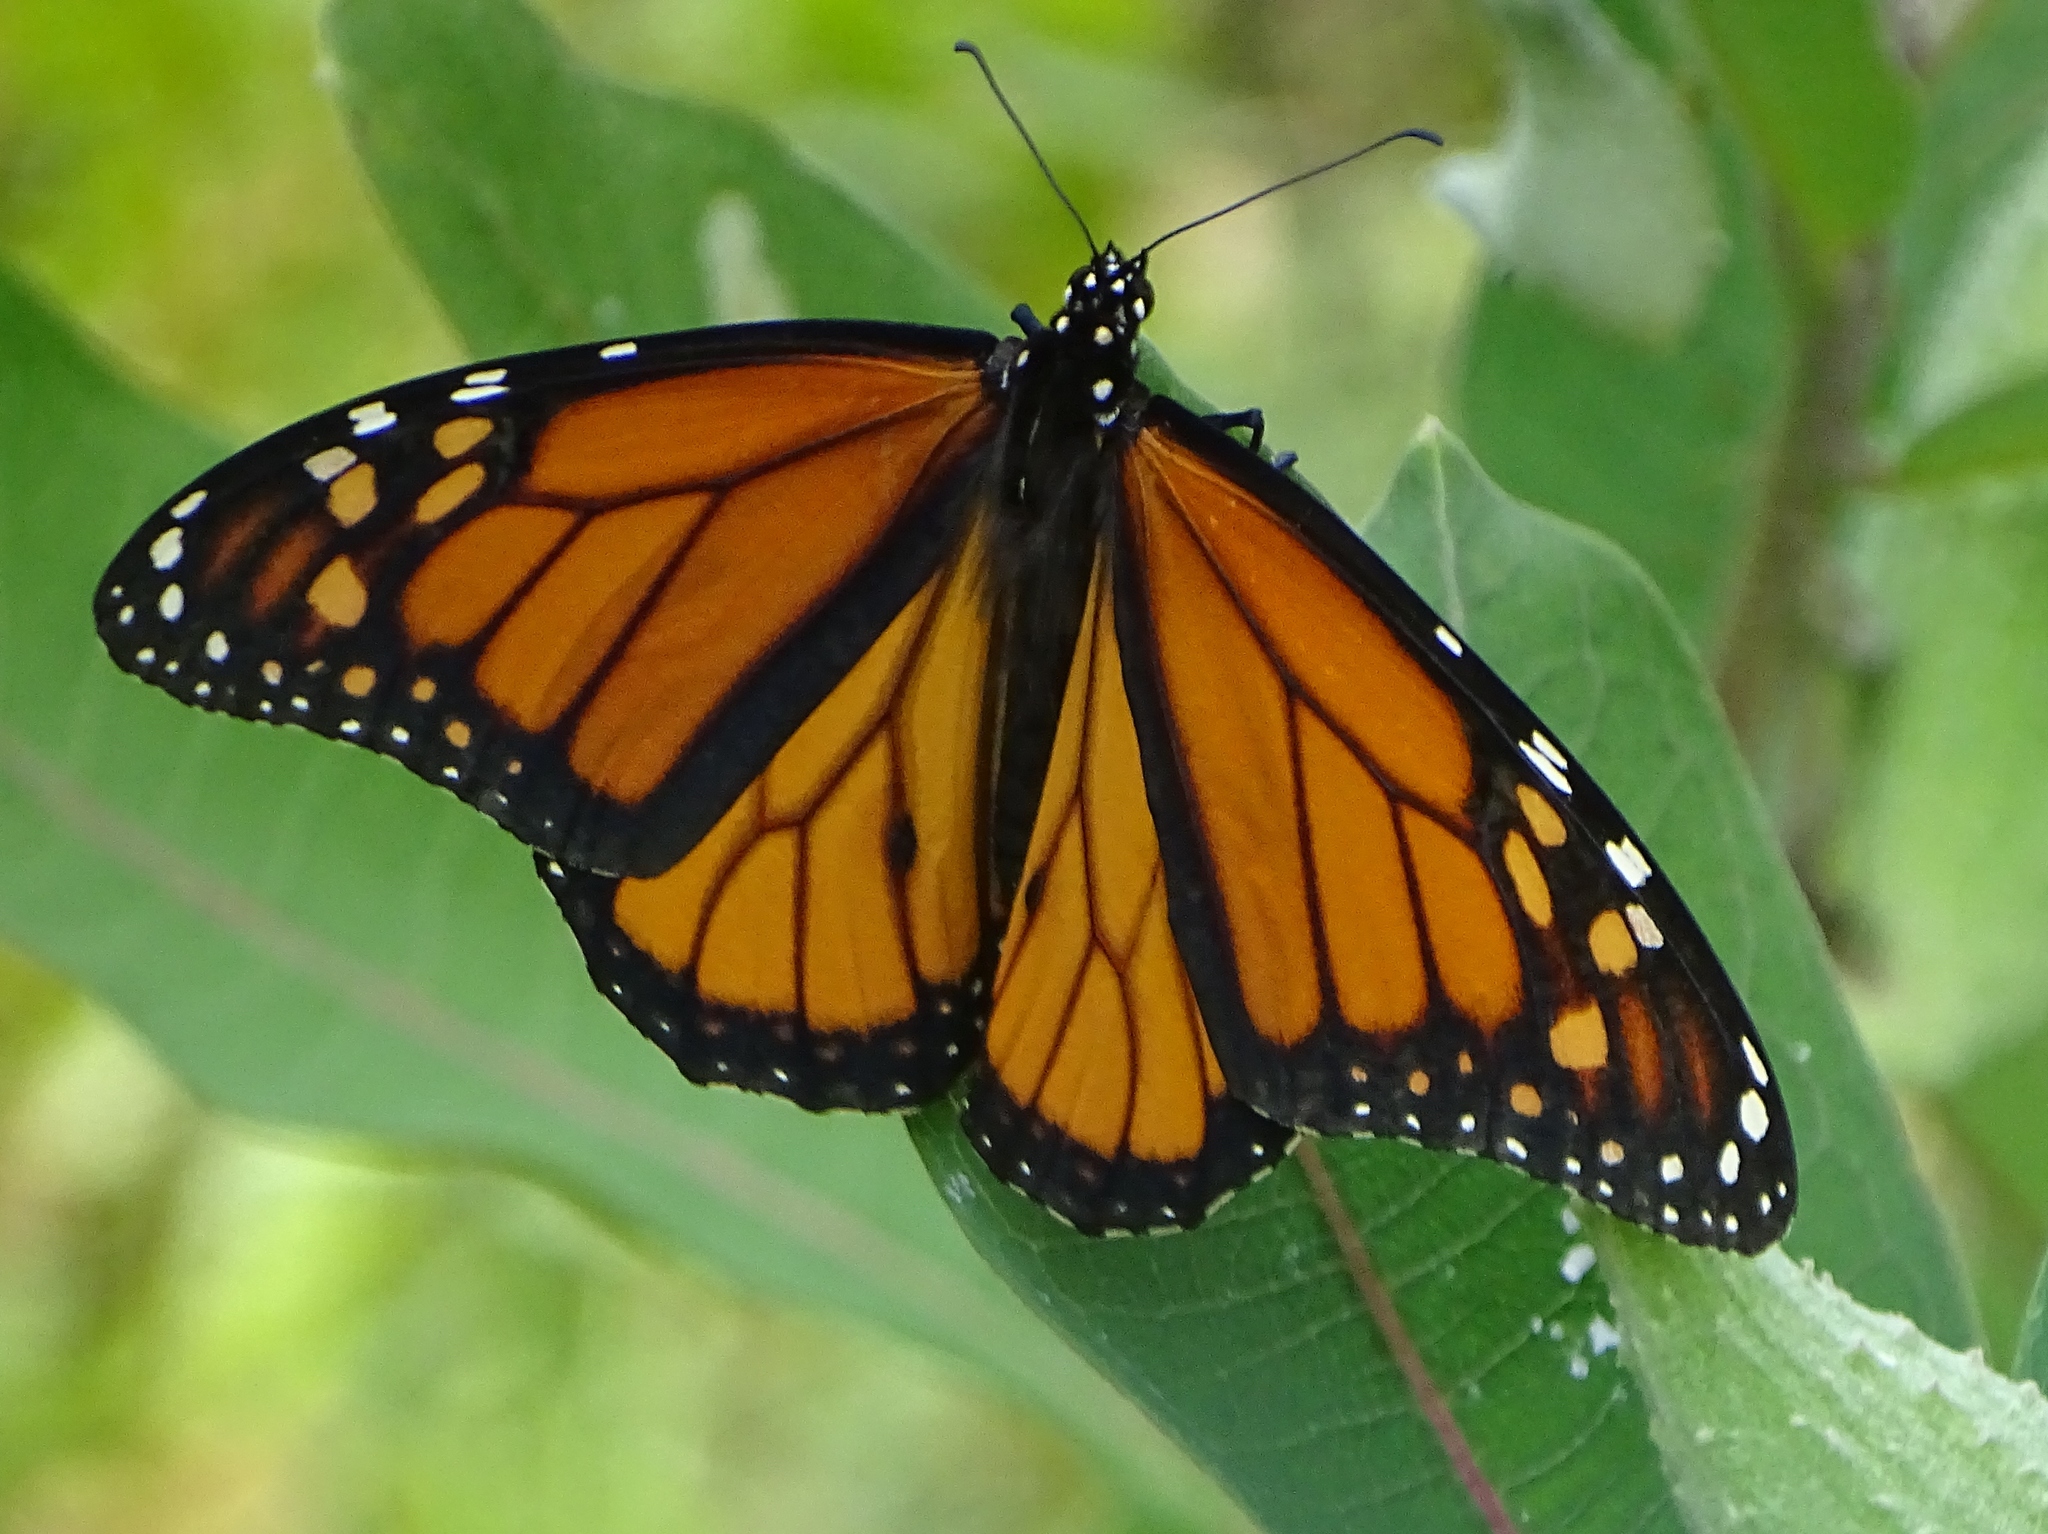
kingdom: Animalia
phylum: Arthropoda
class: Insecta
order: Lepidoptera
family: Nymphalidae
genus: Danaus
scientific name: Danaus plexippus
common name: Monarch
